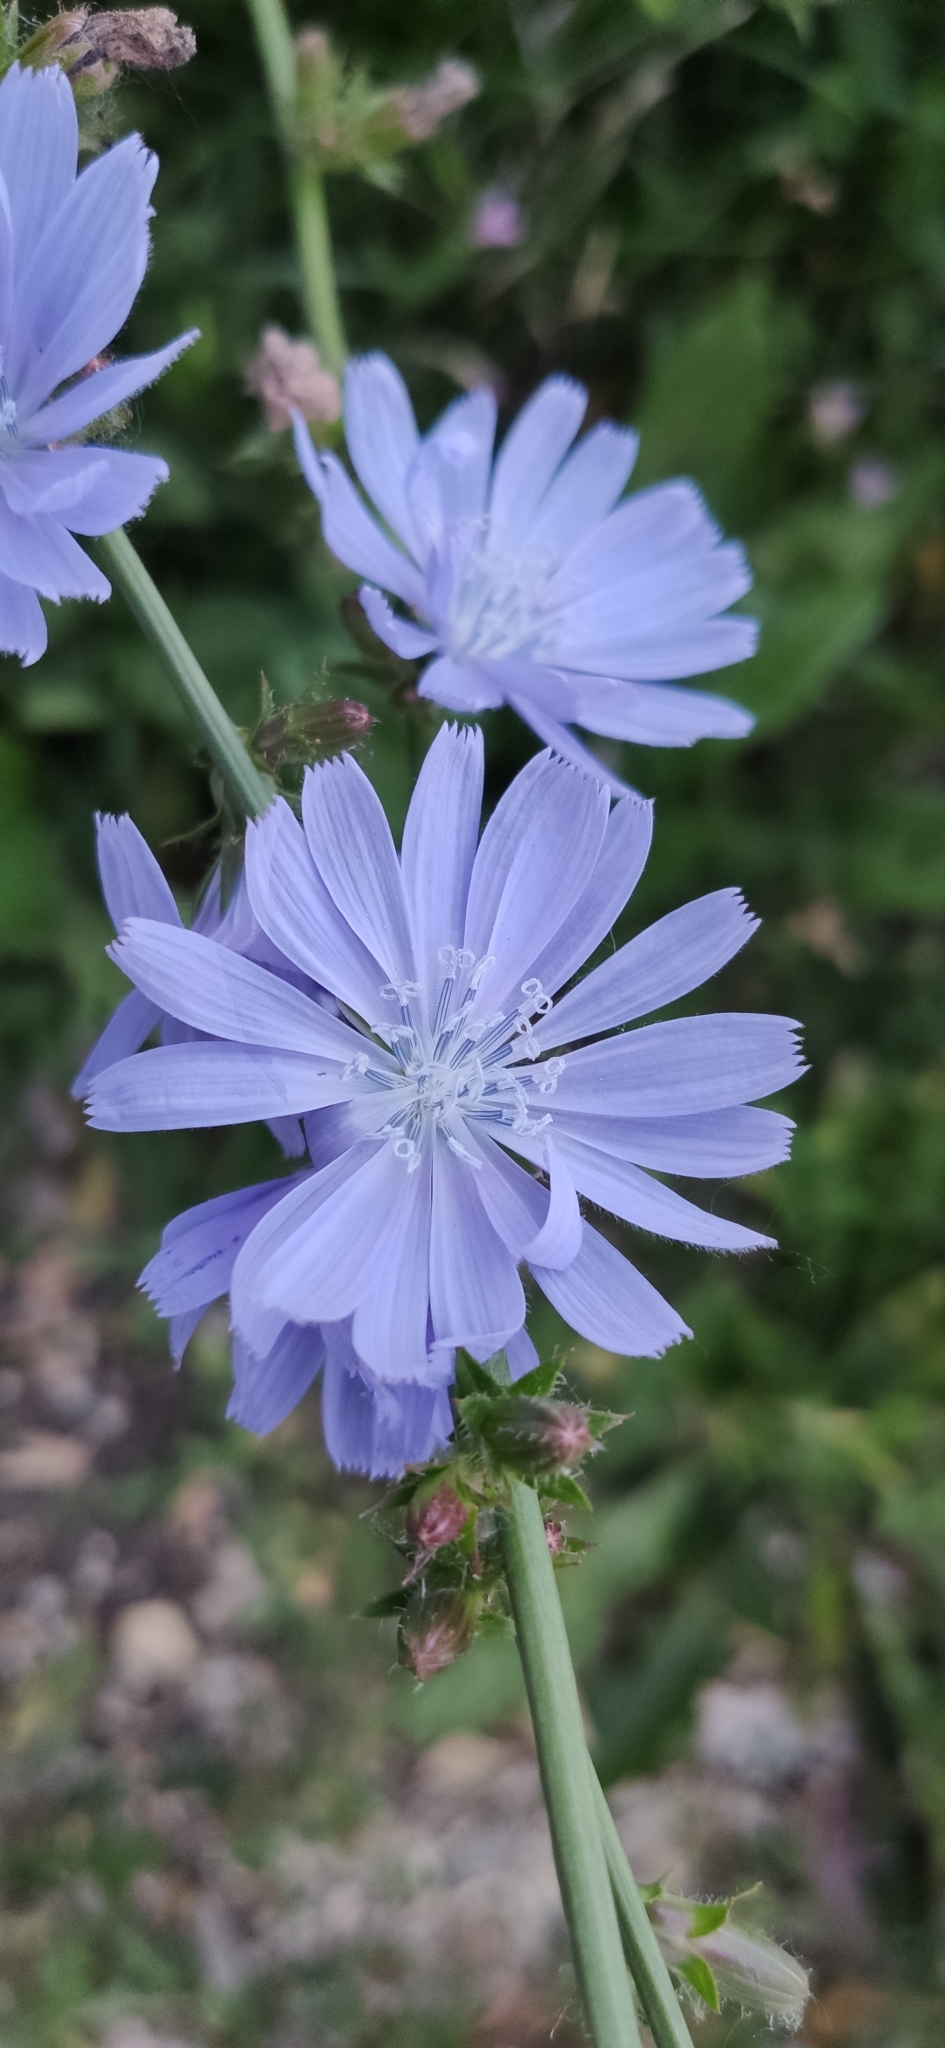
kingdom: Plantae
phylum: Tracheophyta
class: Magnoliopsida
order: Asterales
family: Asteraceae
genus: Cichorium
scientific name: Cichorium intybus
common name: Chicory
